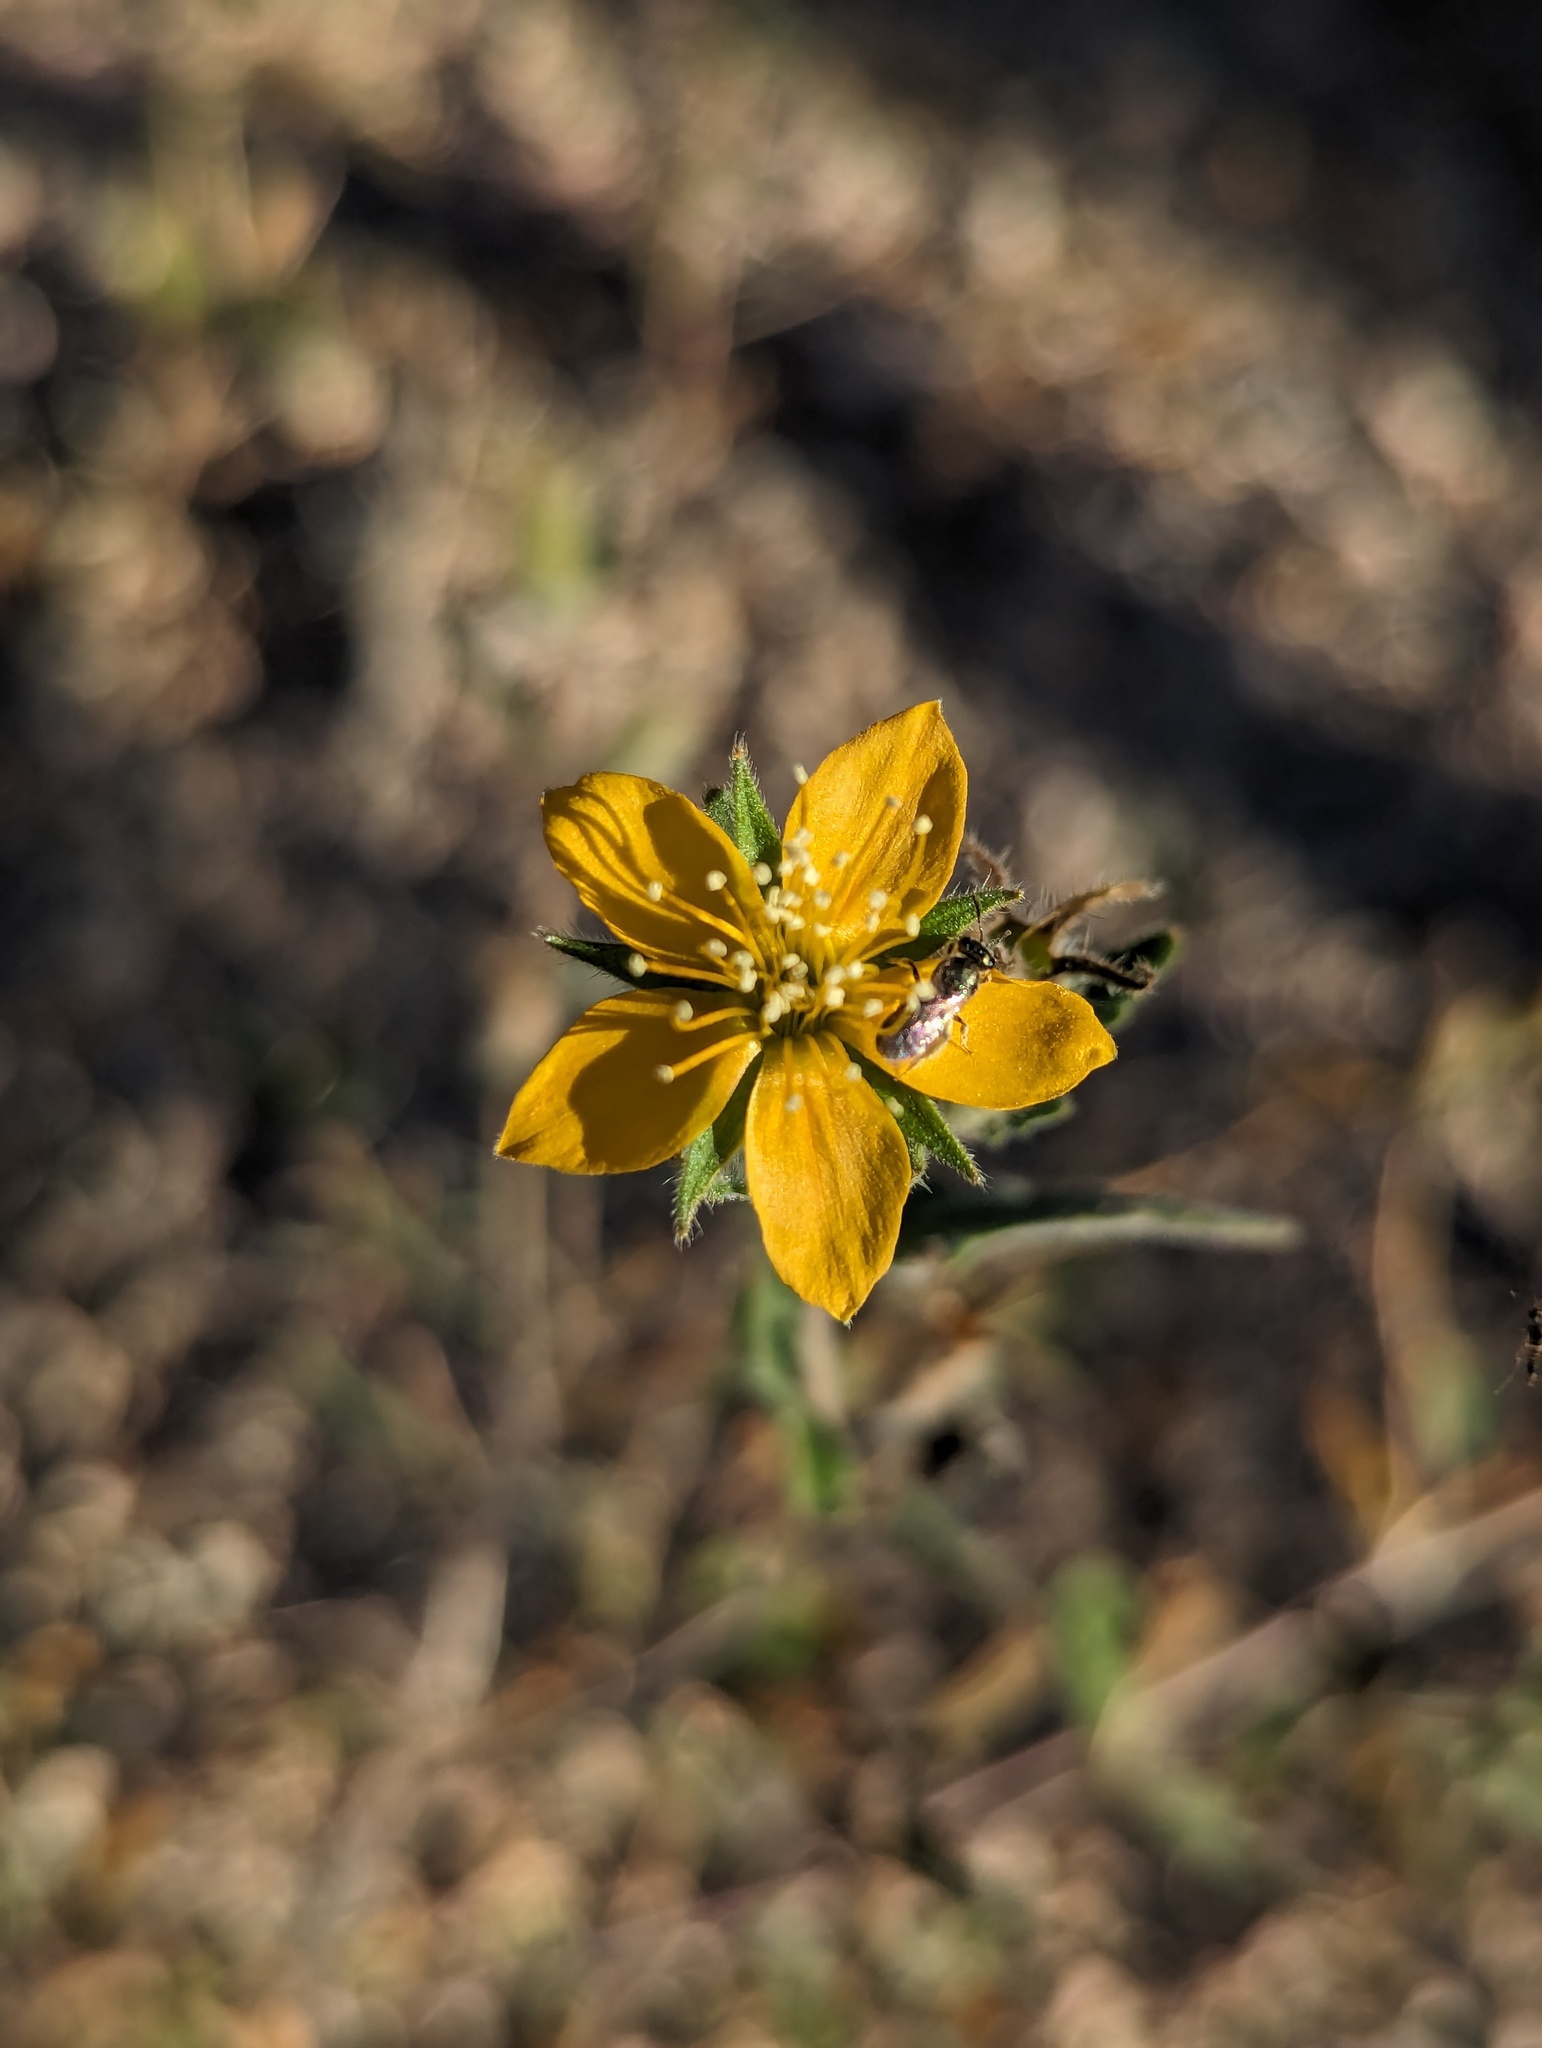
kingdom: Plantae
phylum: Tracheophyta
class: Magnoliopsida
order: Cornales
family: Loasaceae
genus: Mentzelia
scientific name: Mentzelia adhaerens
